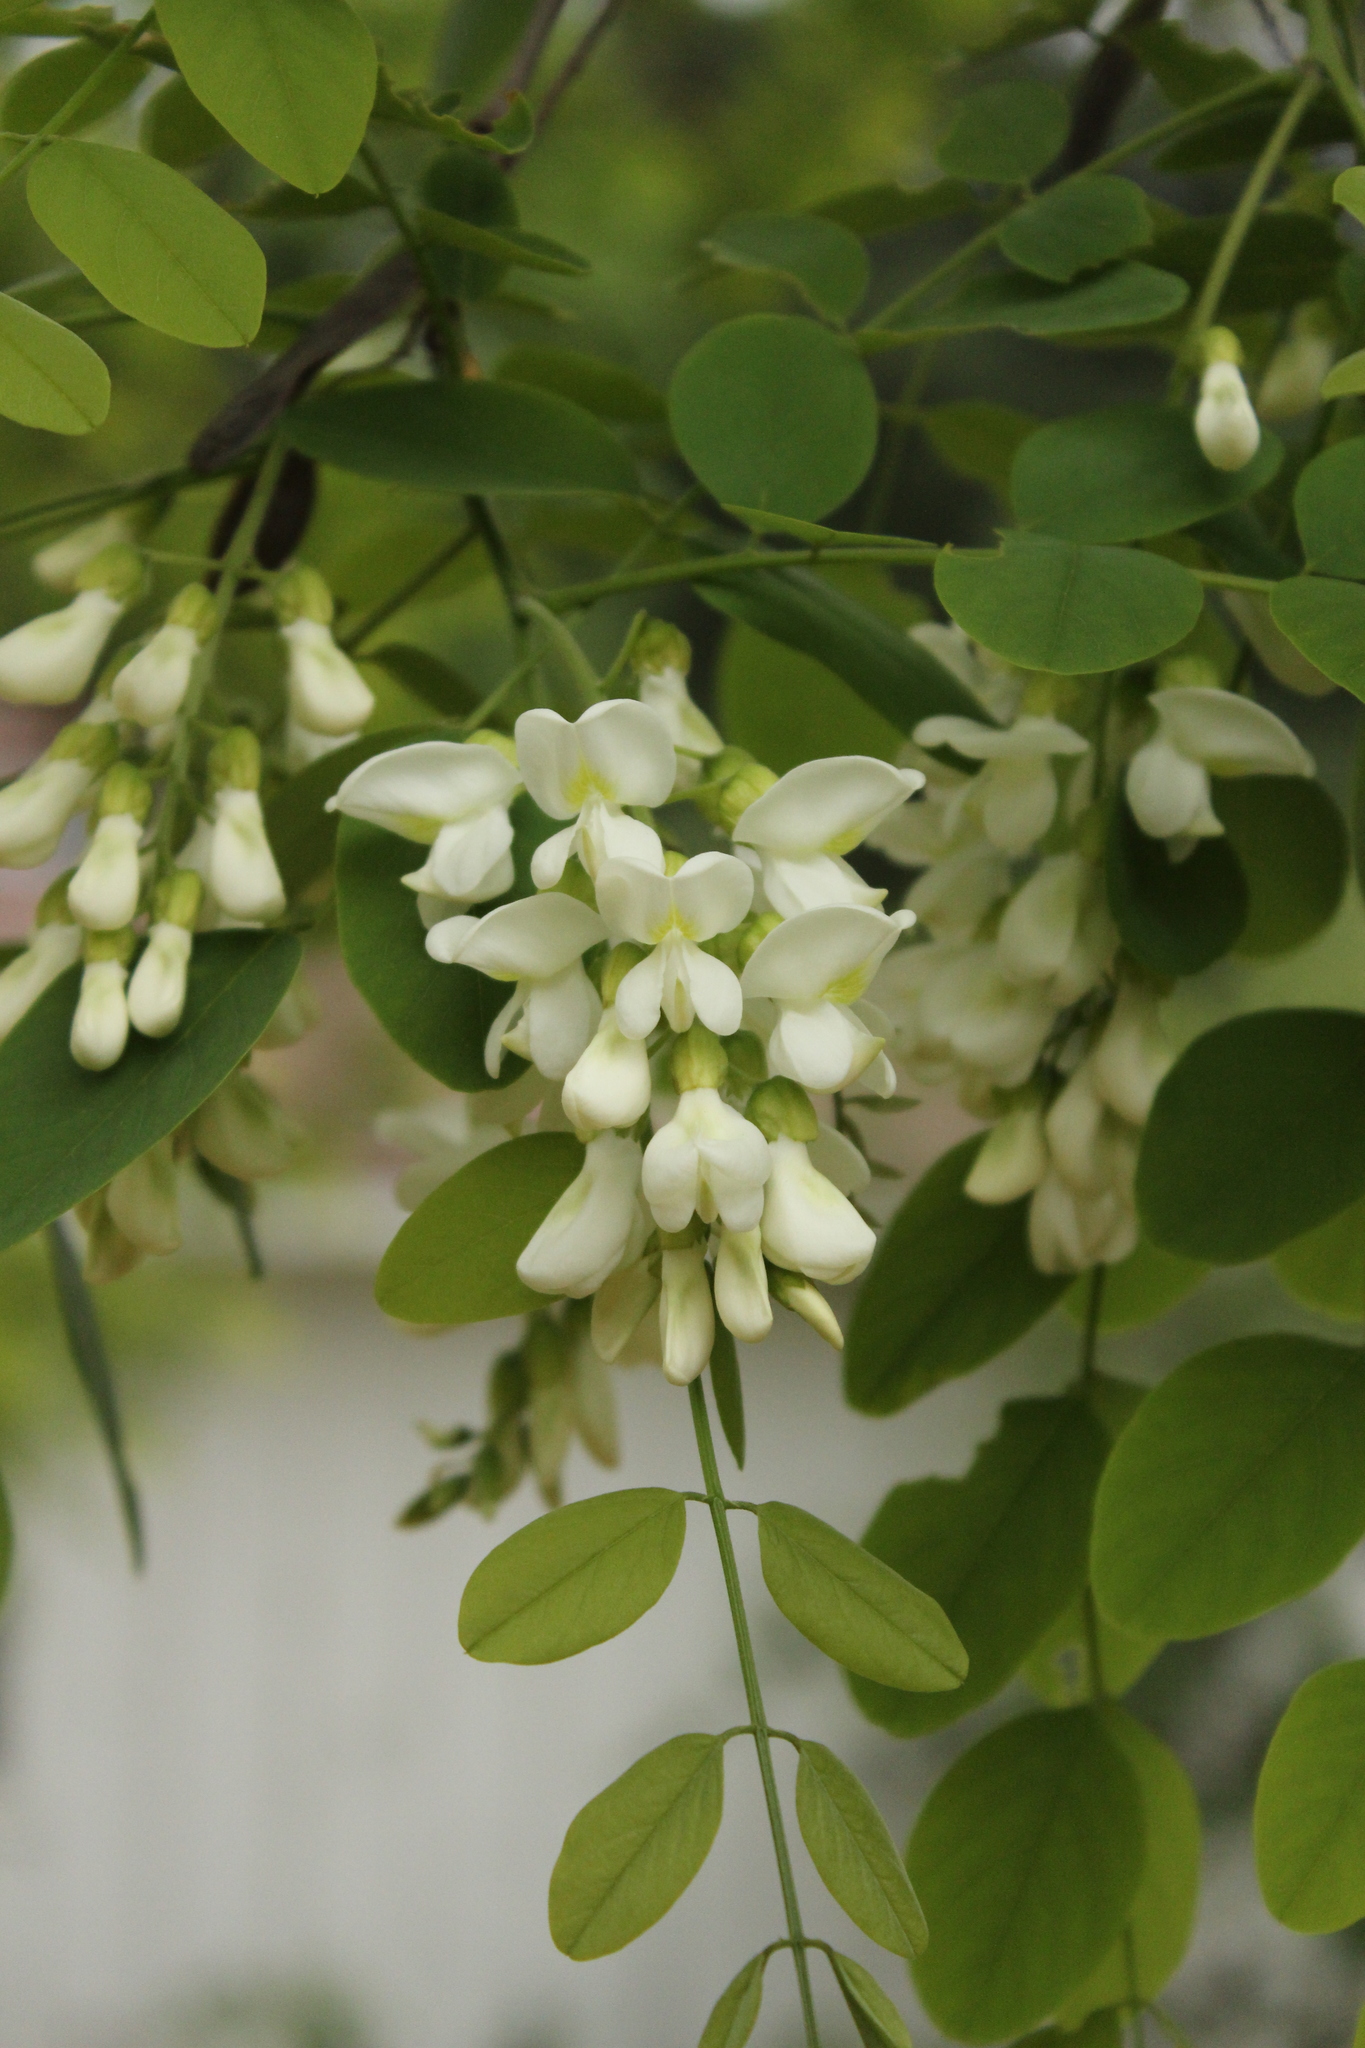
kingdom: Plantae
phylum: Tracheophyta
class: Magnoliopsida
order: Fabales
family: Fabaceae
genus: Robinia
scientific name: Robinia pseudoacacia
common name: Black locust
